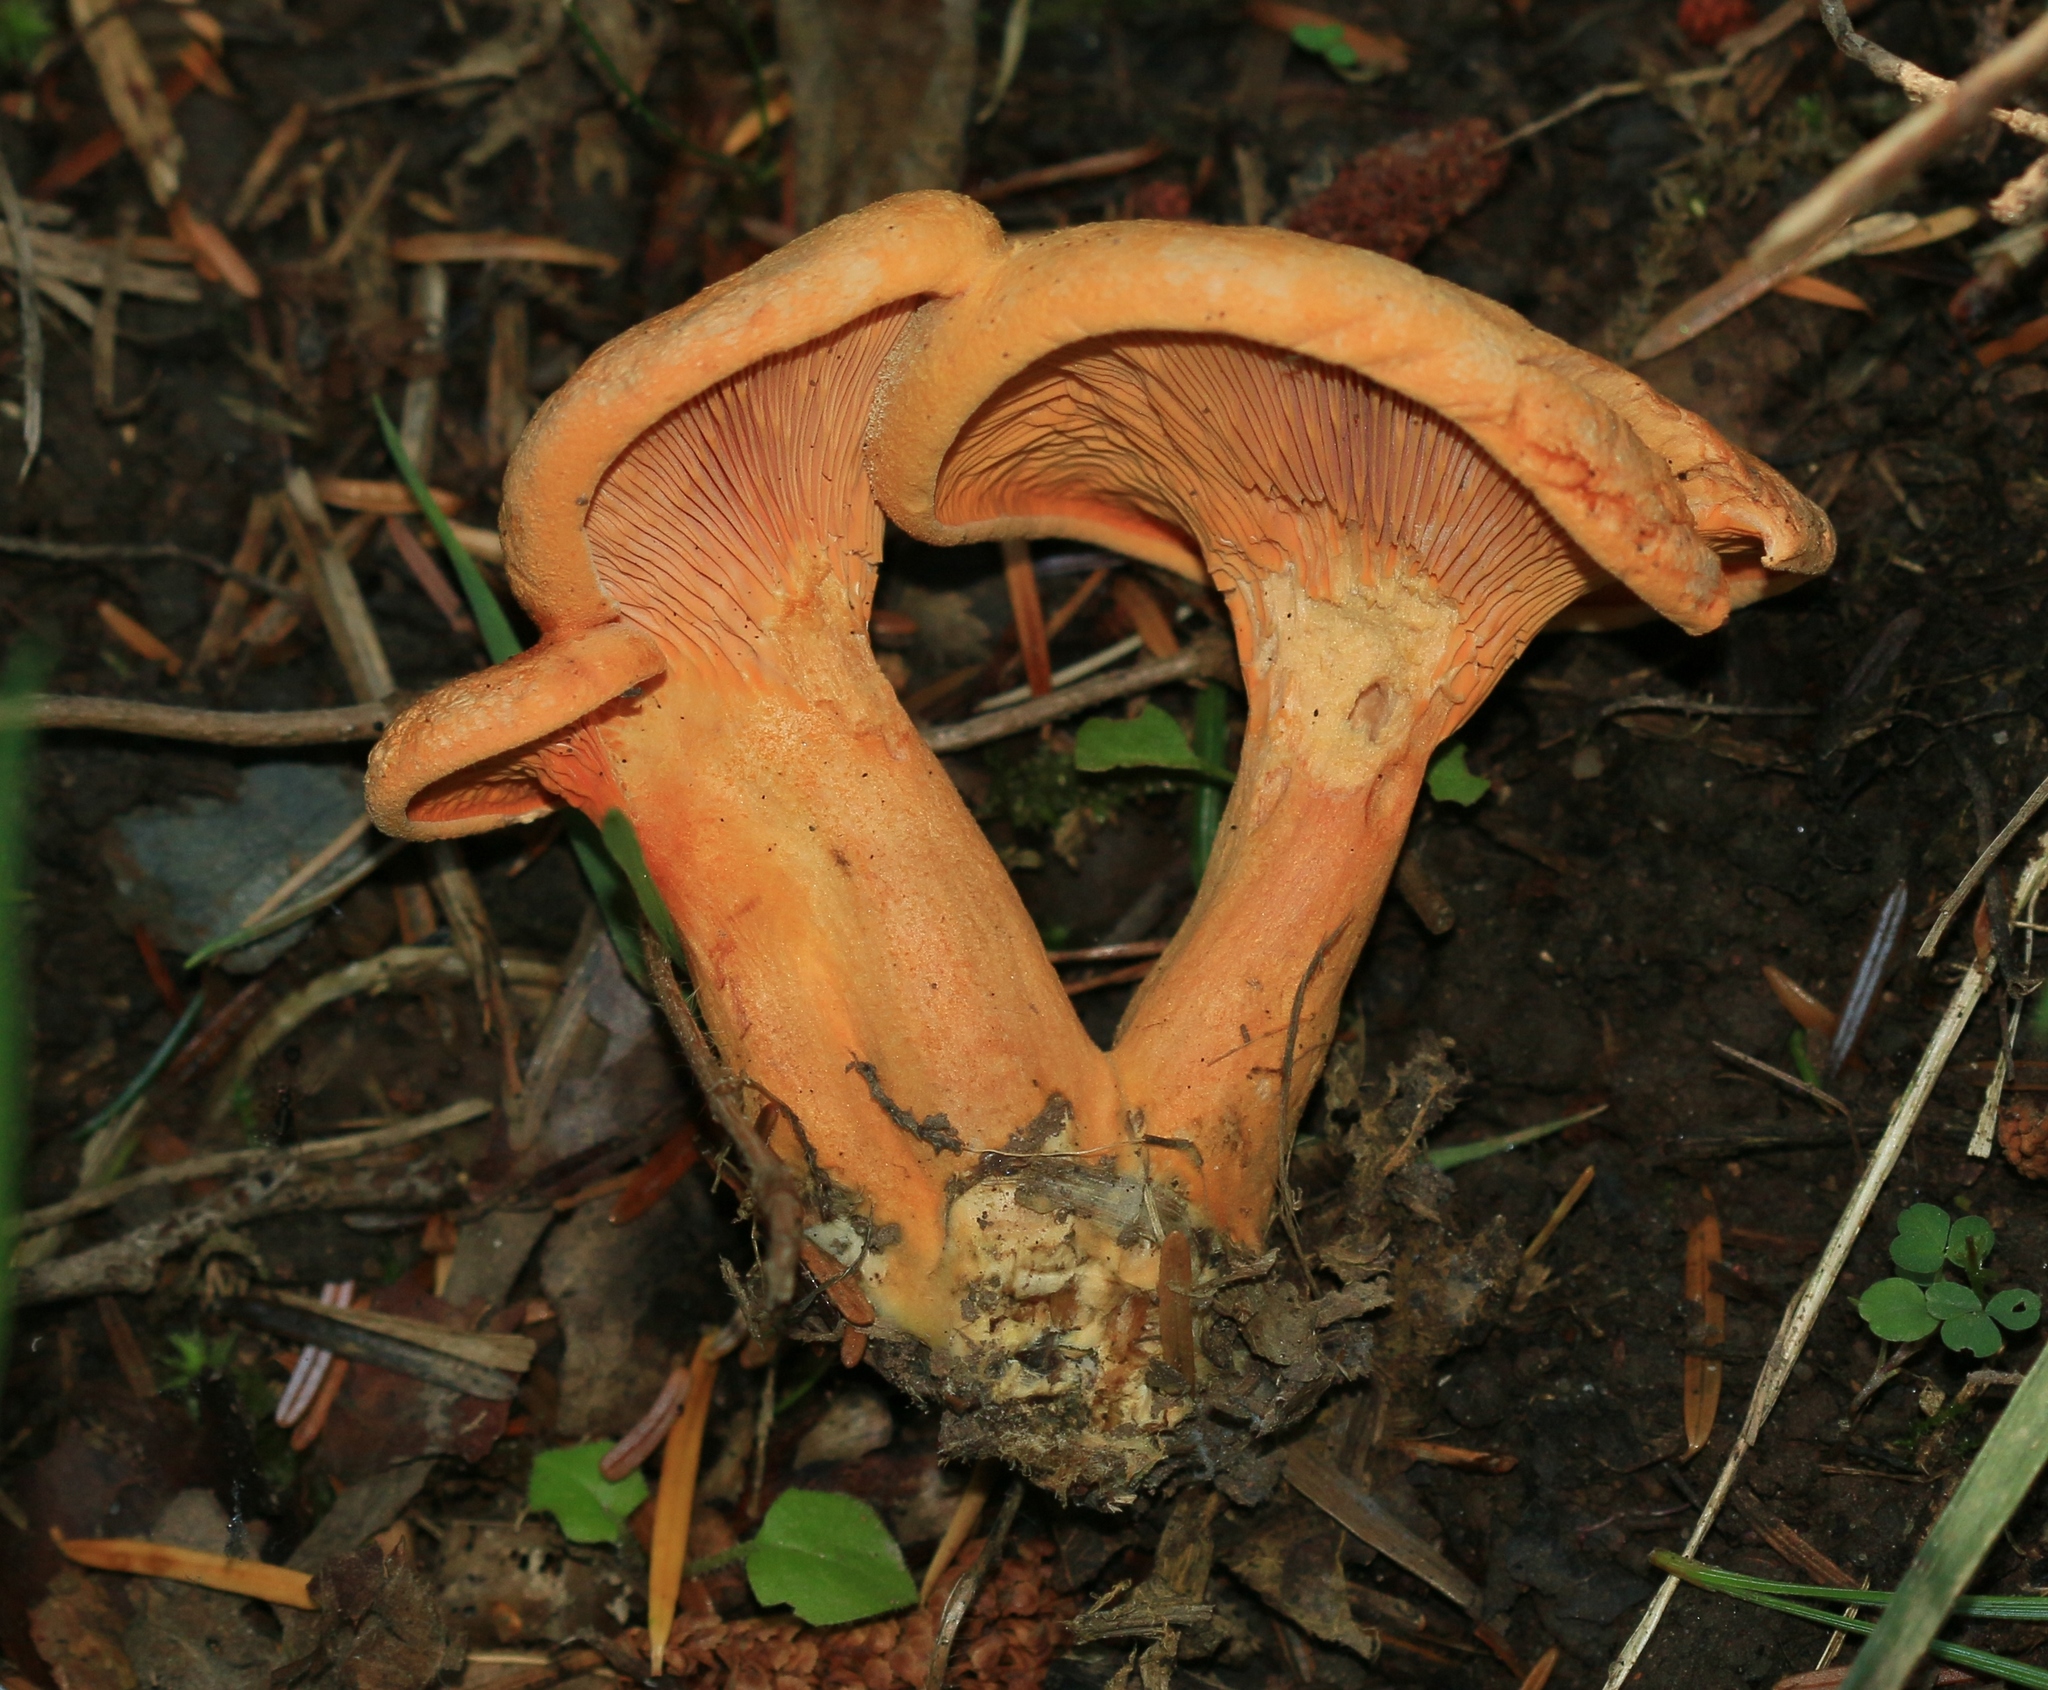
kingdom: Fungi
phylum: Basidiomycota
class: Agaricomycetes
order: Boletales
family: Hygrophoropsidaceae
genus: Hygrophoropsis
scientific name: Hygrophoropsis aurantiaca
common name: False chanterelle
